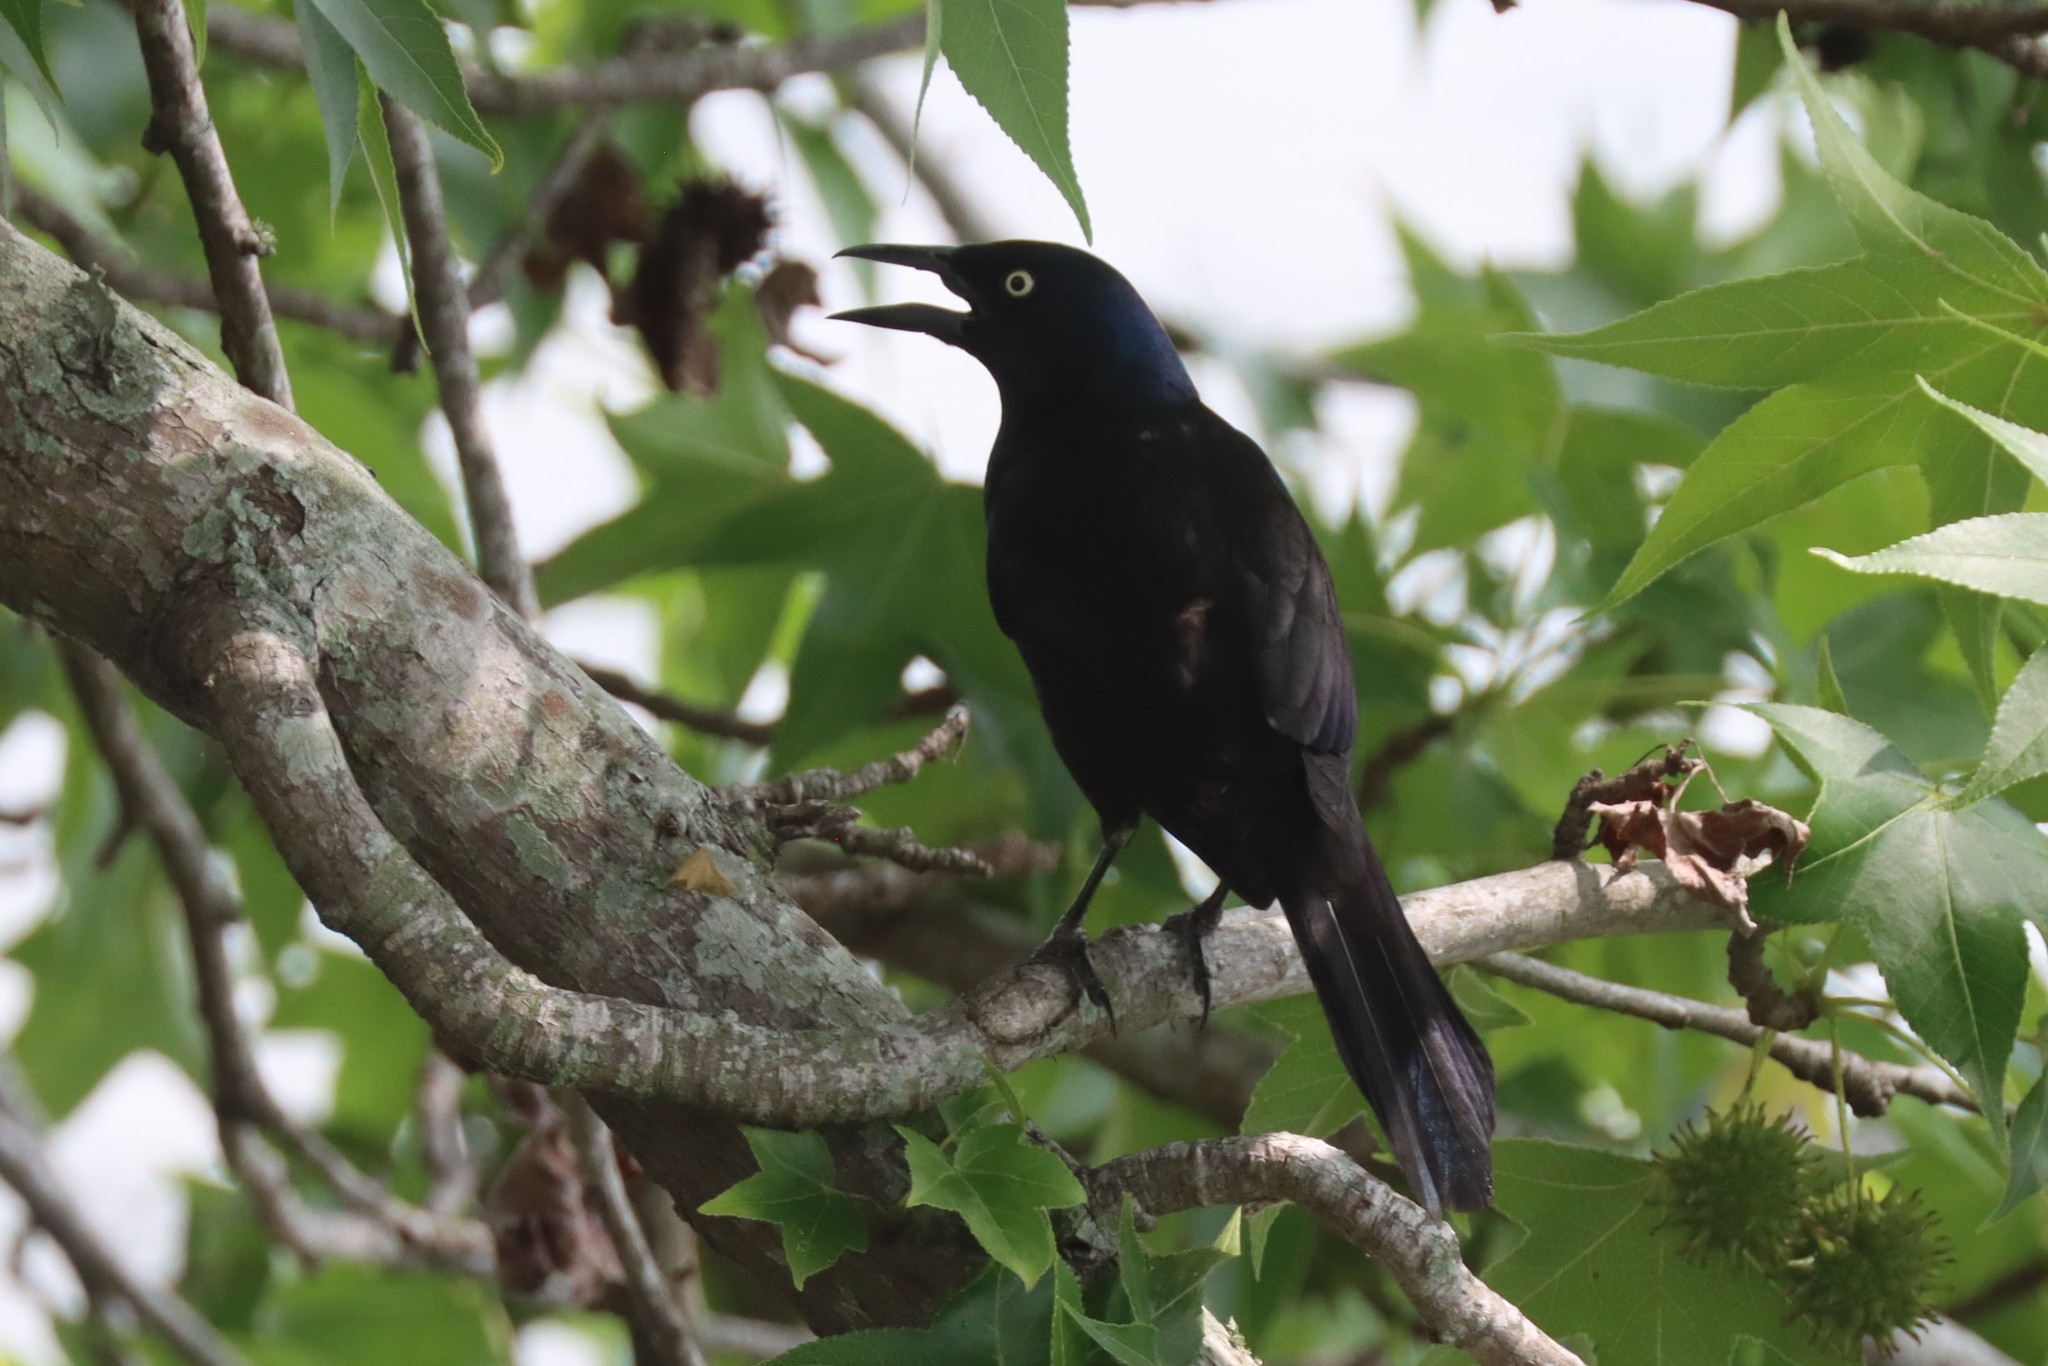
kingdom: Animalia
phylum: Chordata
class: Aves
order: Passeriformes
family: Icteridae
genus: Quiscalus
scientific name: Quiscalus quiscula
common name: Common grackle
